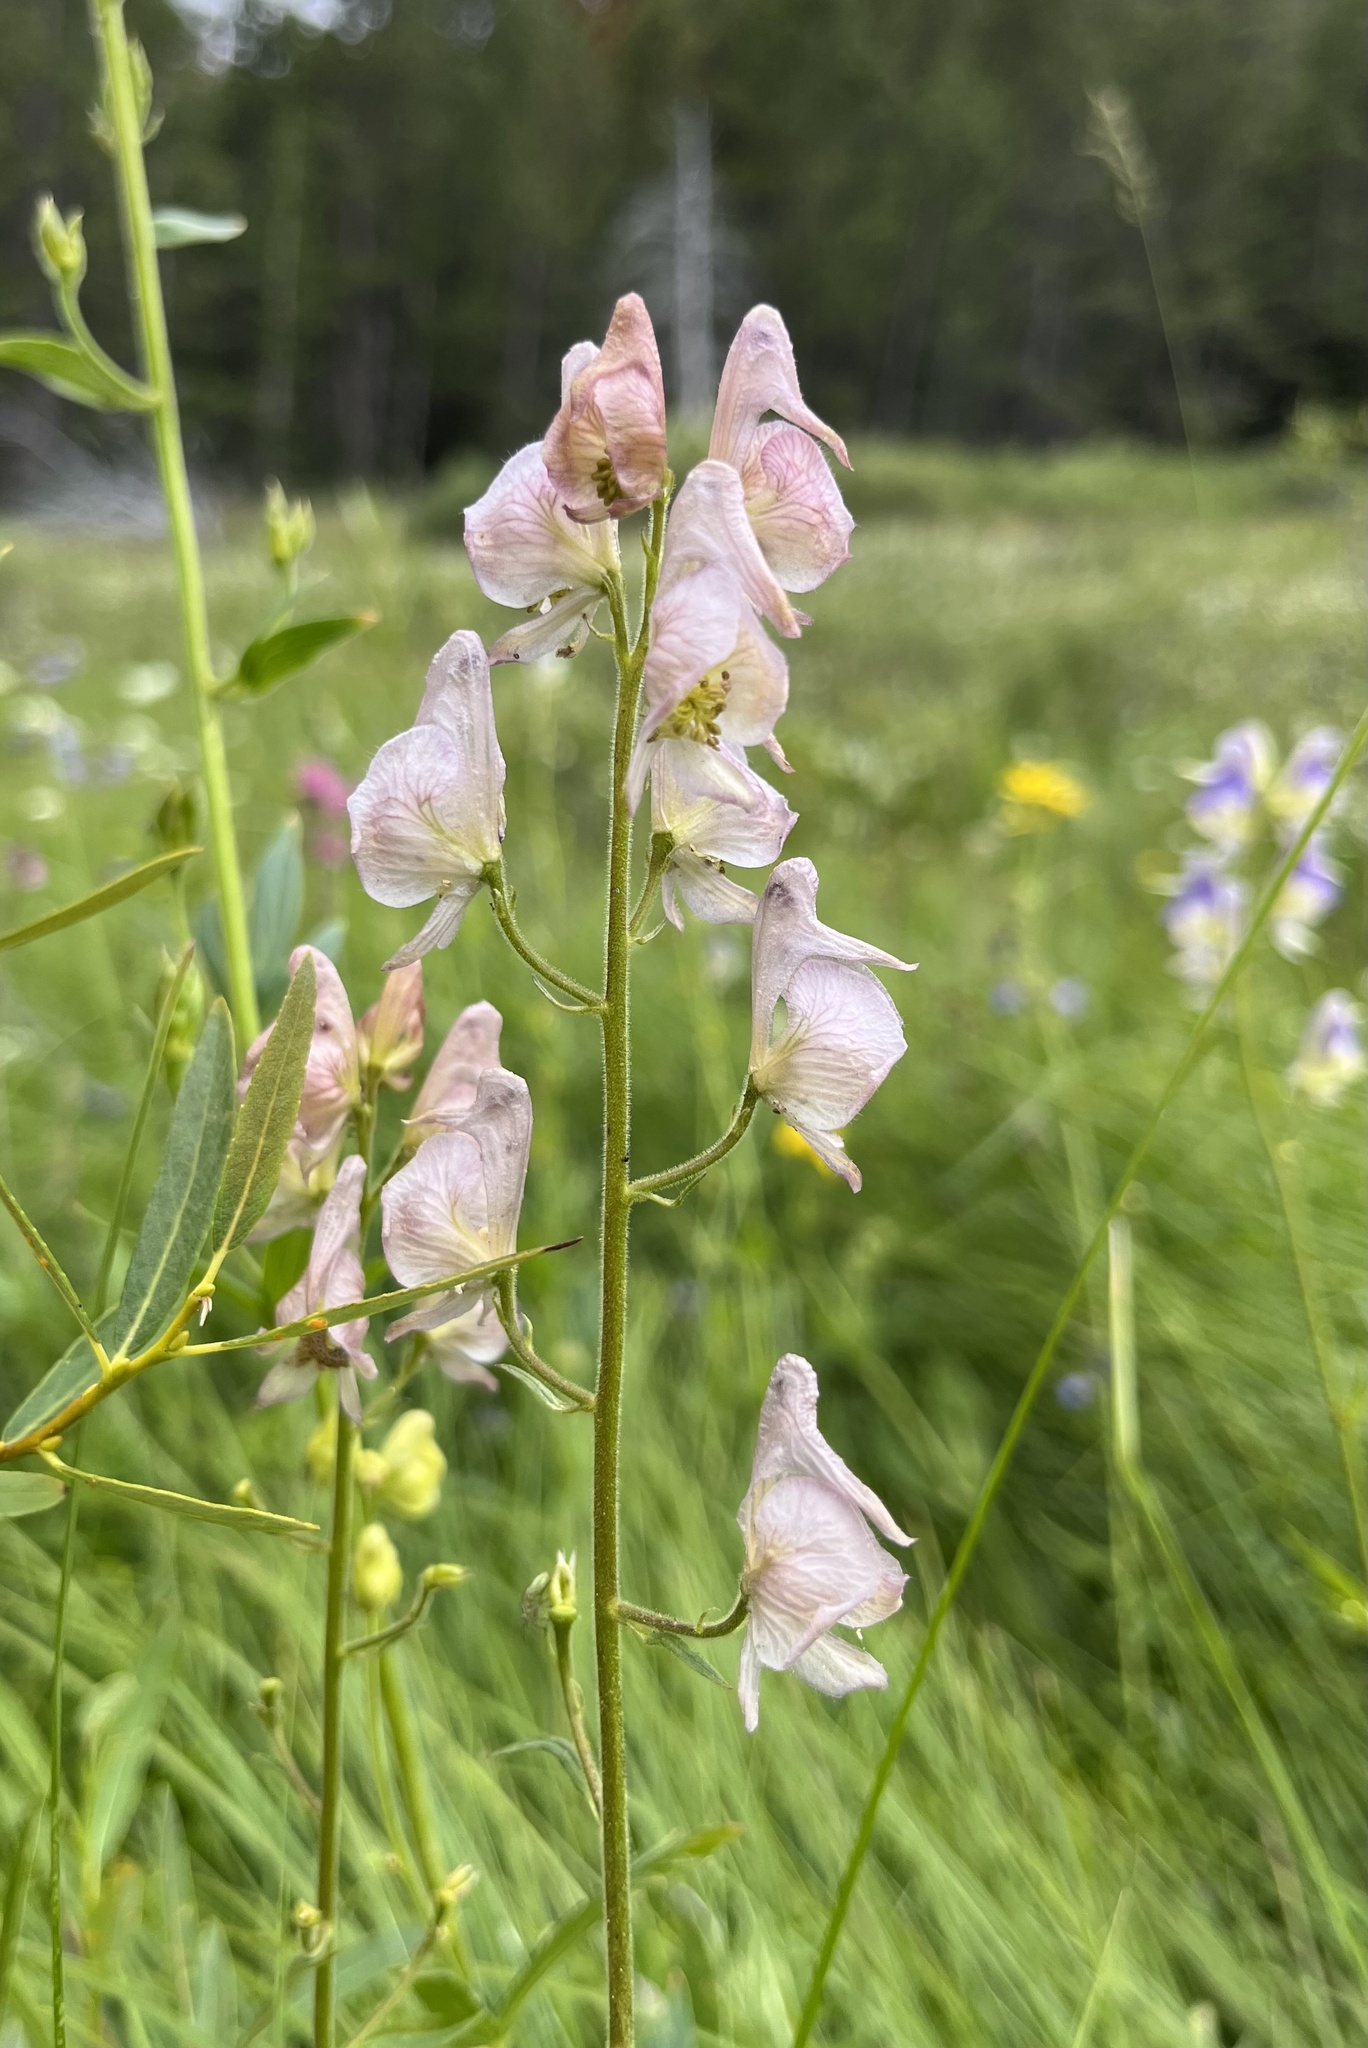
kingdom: Plantae
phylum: Tracheophyta
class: Magnoliopsida
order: Ranunculales
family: Ranunculaceae
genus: Aconitum
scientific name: Aconitum columbianum
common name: Columbia aconite
